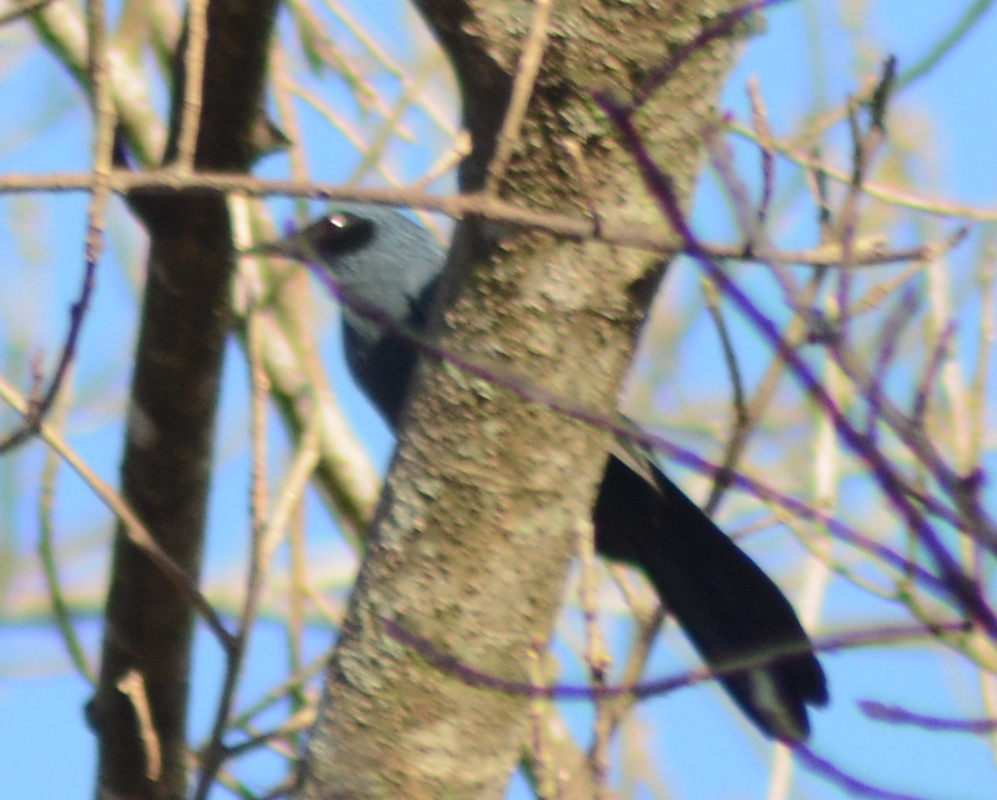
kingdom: Animalia
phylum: Chordata
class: Aves
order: Passeriformes
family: Mimidae
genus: Melanotis
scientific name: Melanotis caerulescens
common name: Blue mockingbird
